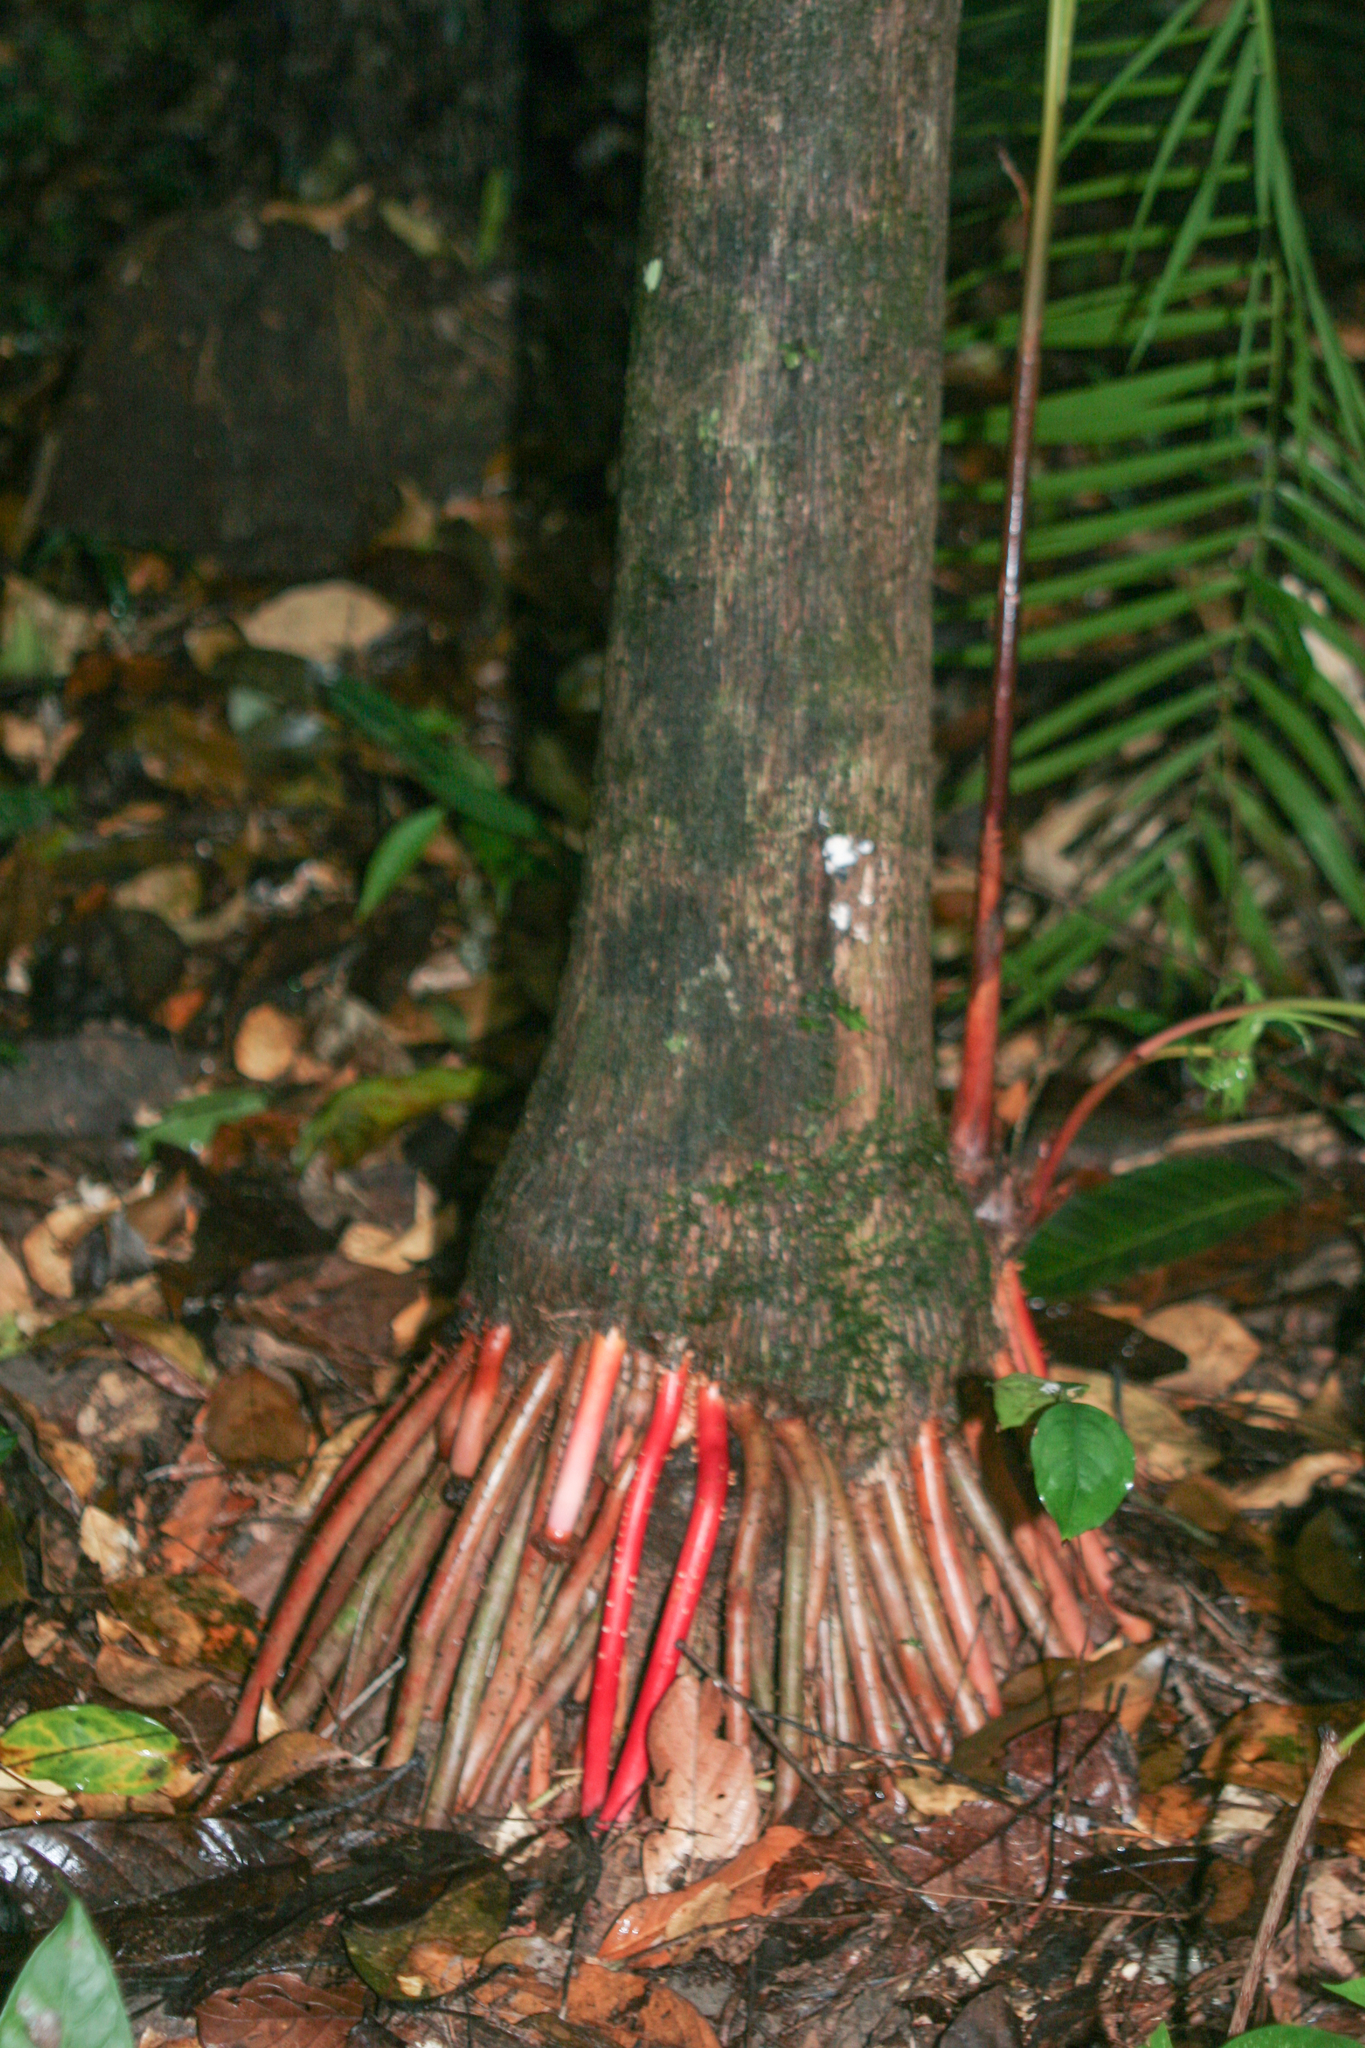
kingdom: Plantae
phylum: Tracheophyta
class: Liliopsida
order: Arecales
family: Arecaceae
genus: Euterpe
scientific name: Euterpe oleracea
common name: Assai palm
